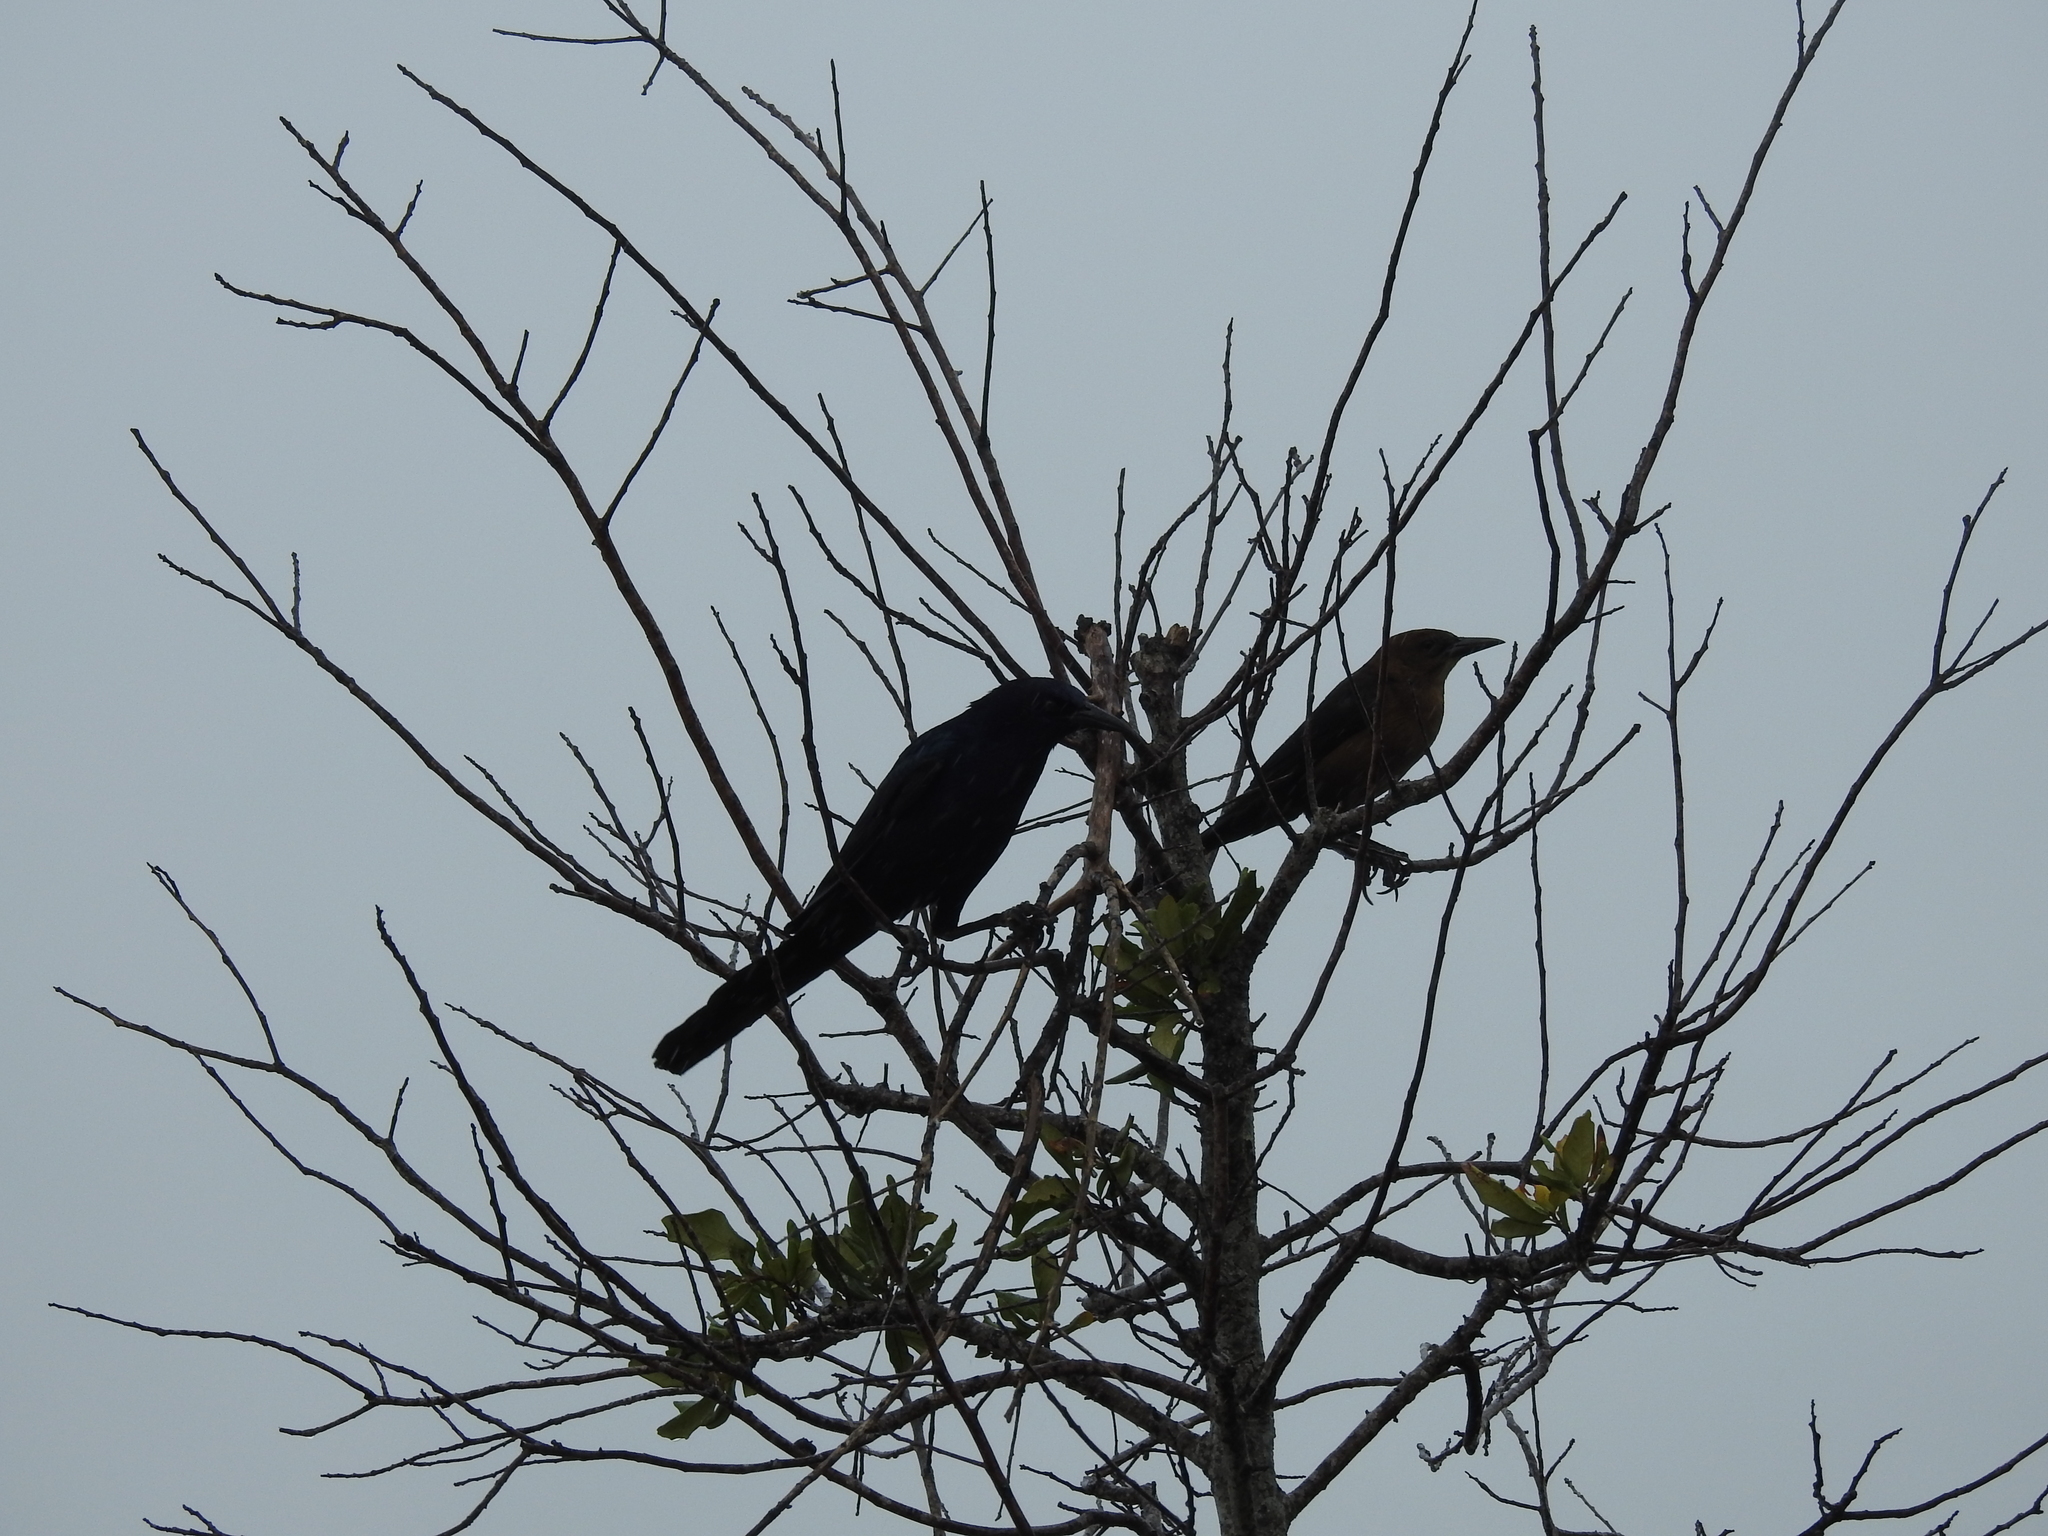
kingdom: Animalia
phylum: Chordata
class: Aves
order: Passeriformes
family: Icteridae
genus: Quiscalus
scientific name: Quiscalus major
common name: Boat-tailed grackle
